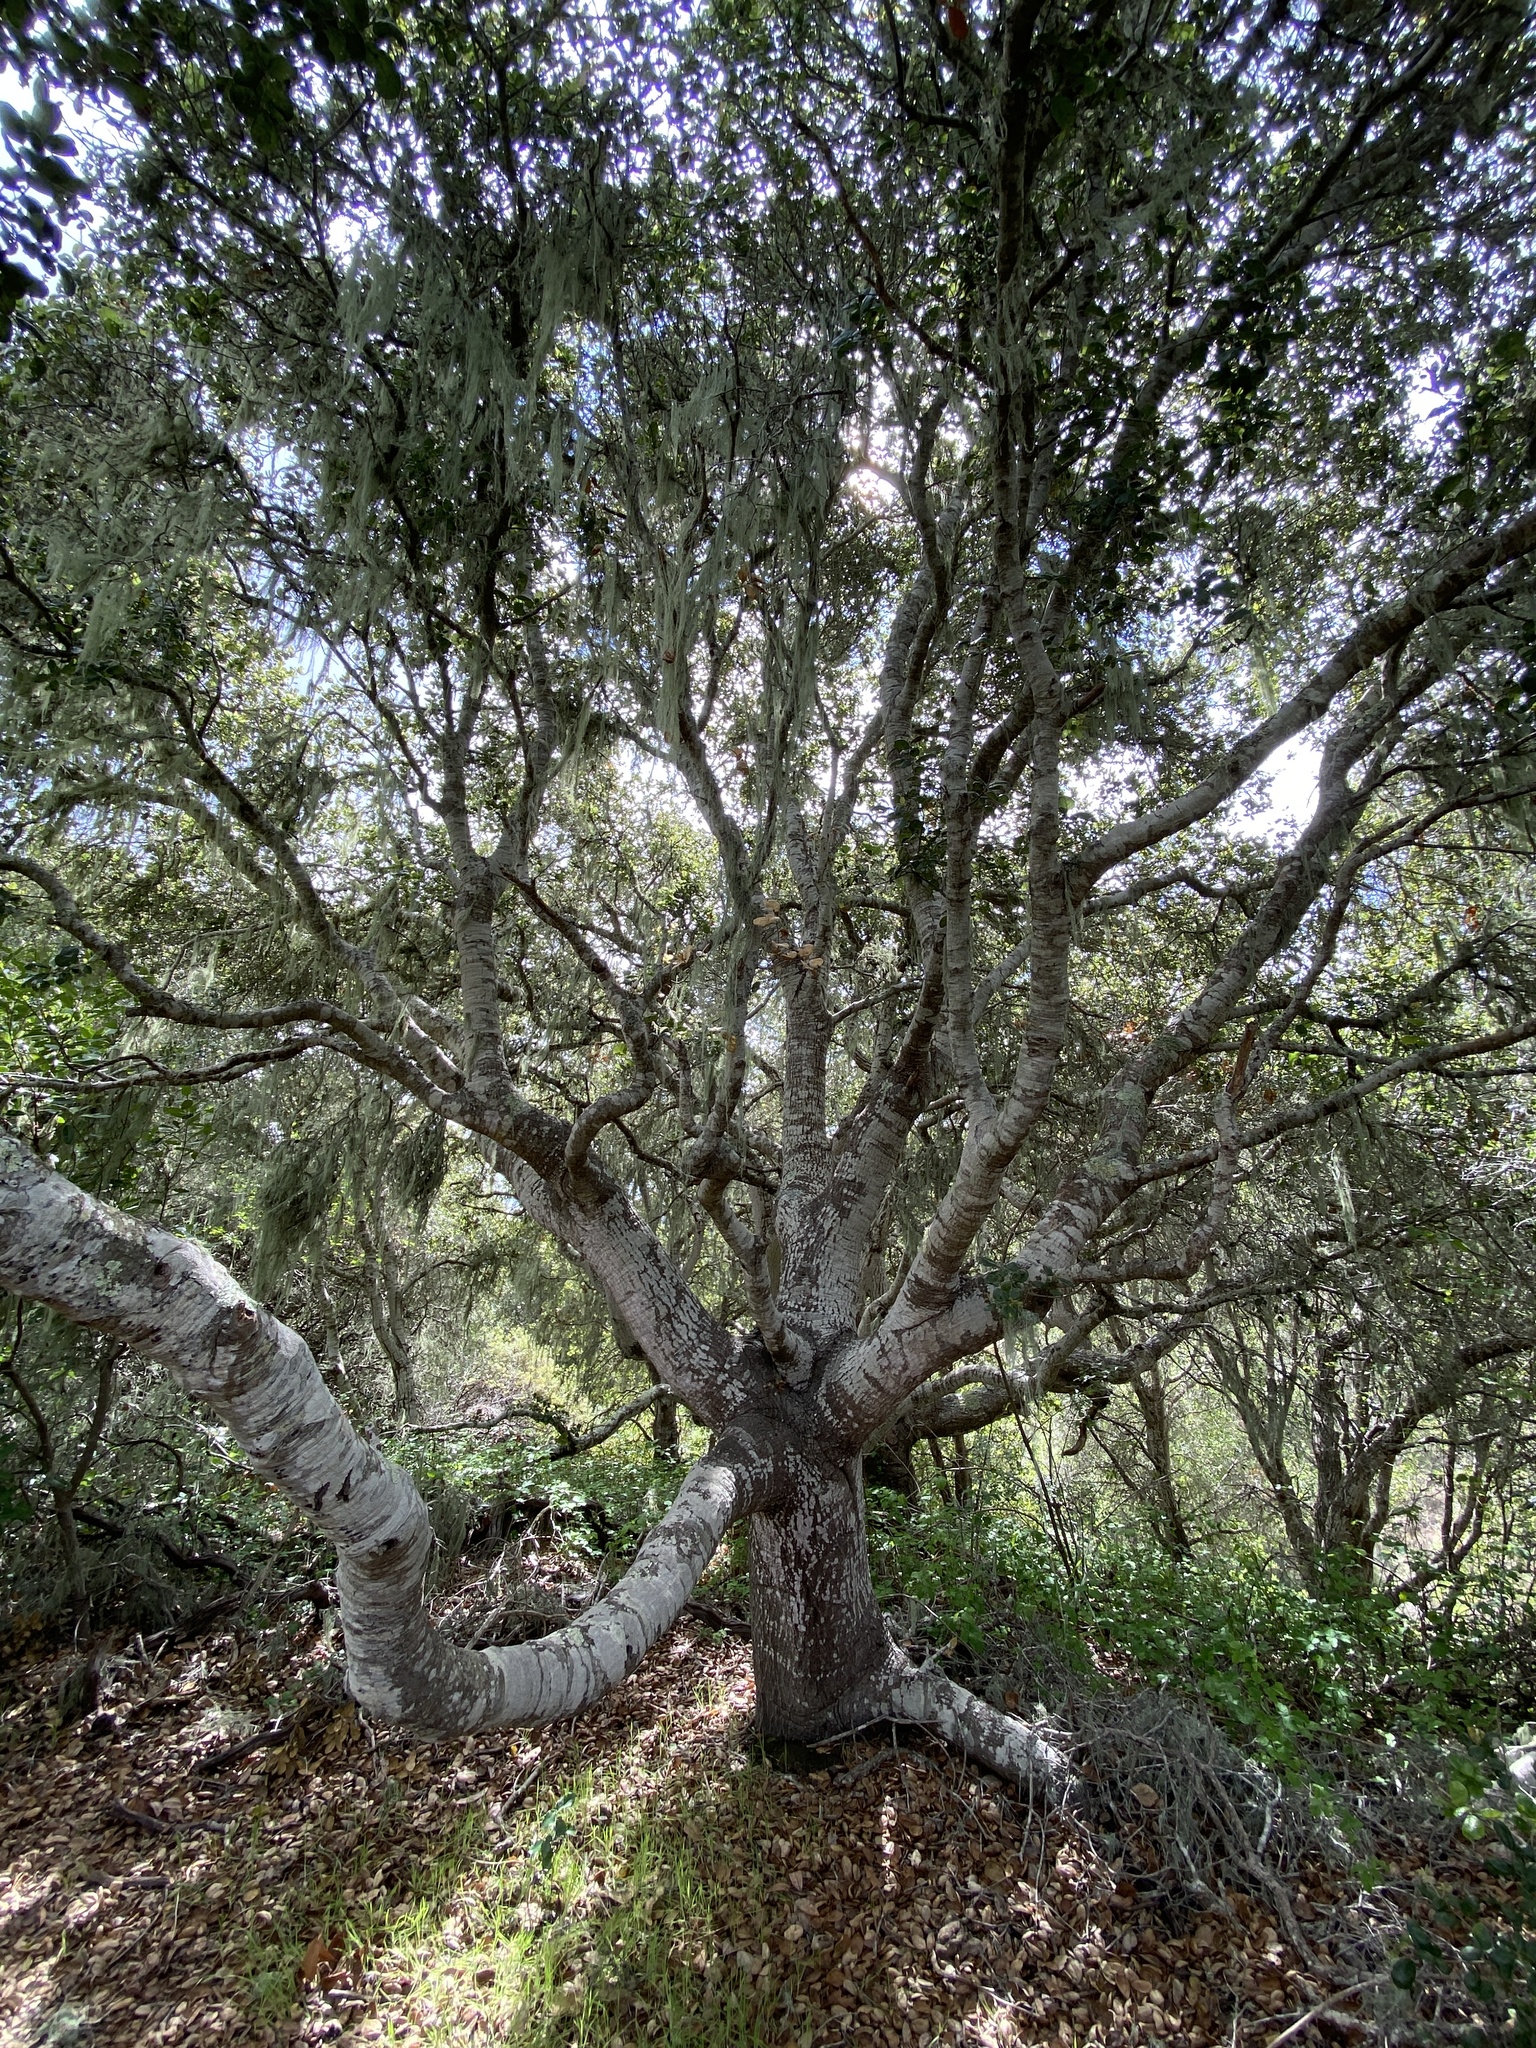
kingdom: Plantae
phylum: Tracheophyta
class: Magnoliopsida
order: Fagales
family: Fagaceae
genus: Quercus
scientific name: Quercus agrifolia
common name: California live oak
